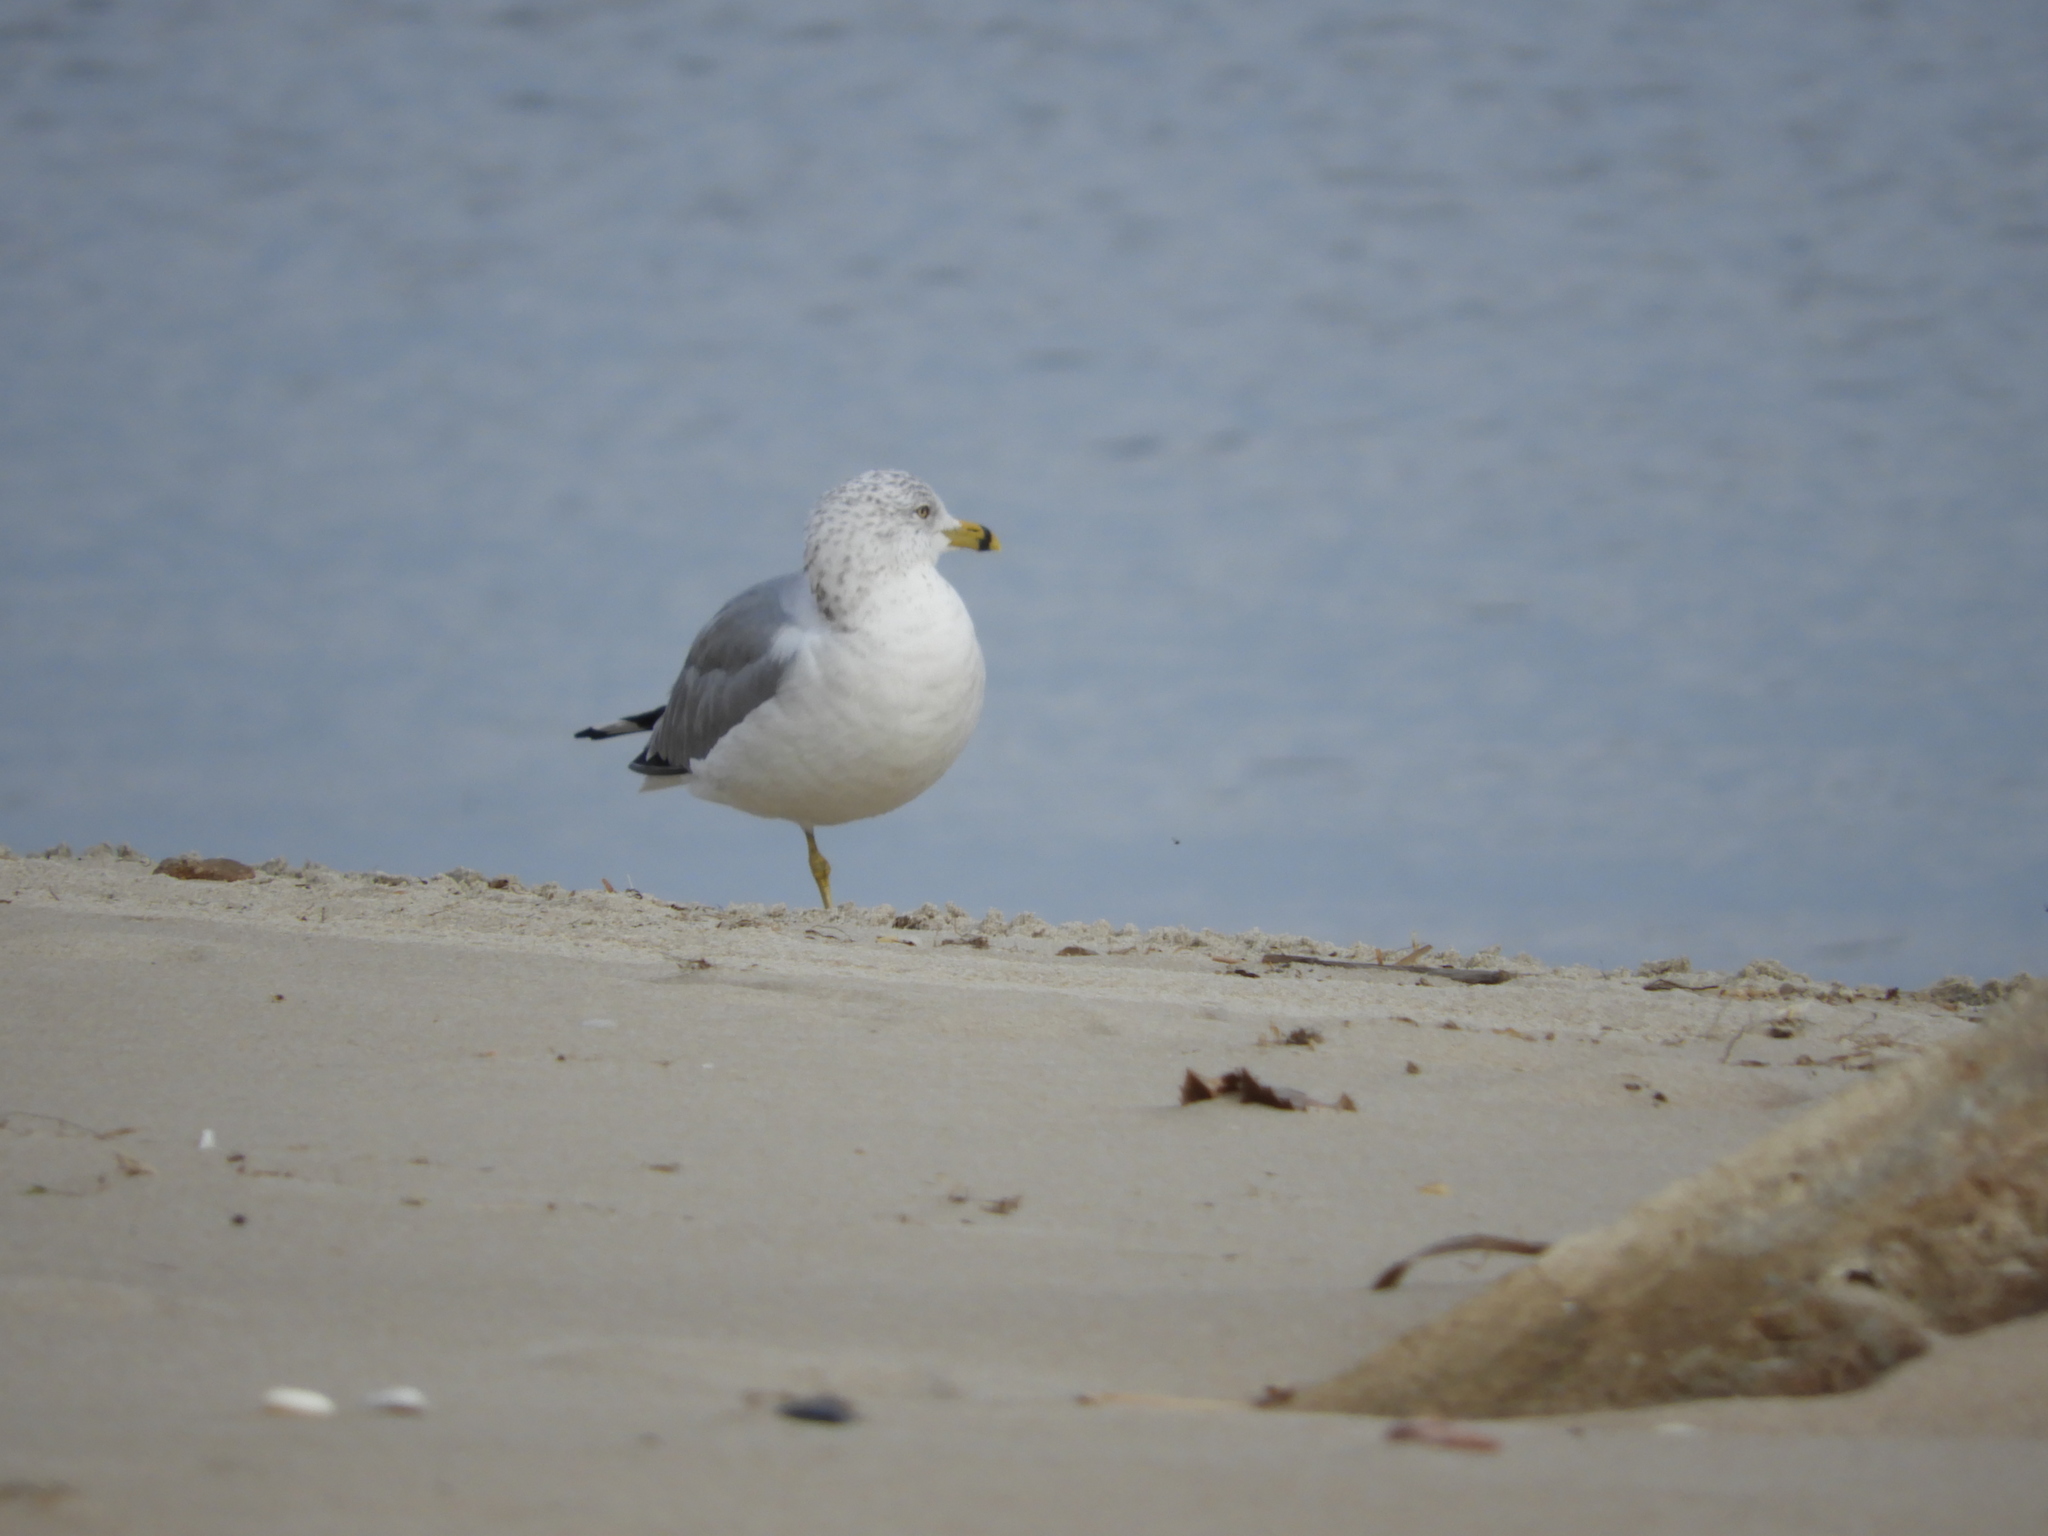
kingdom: Animalia
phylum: Chordata
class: Aves
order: Charadriiformes
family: Laridae
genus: Larus
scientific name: Larus delawarensis
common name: Ring-billed gull
